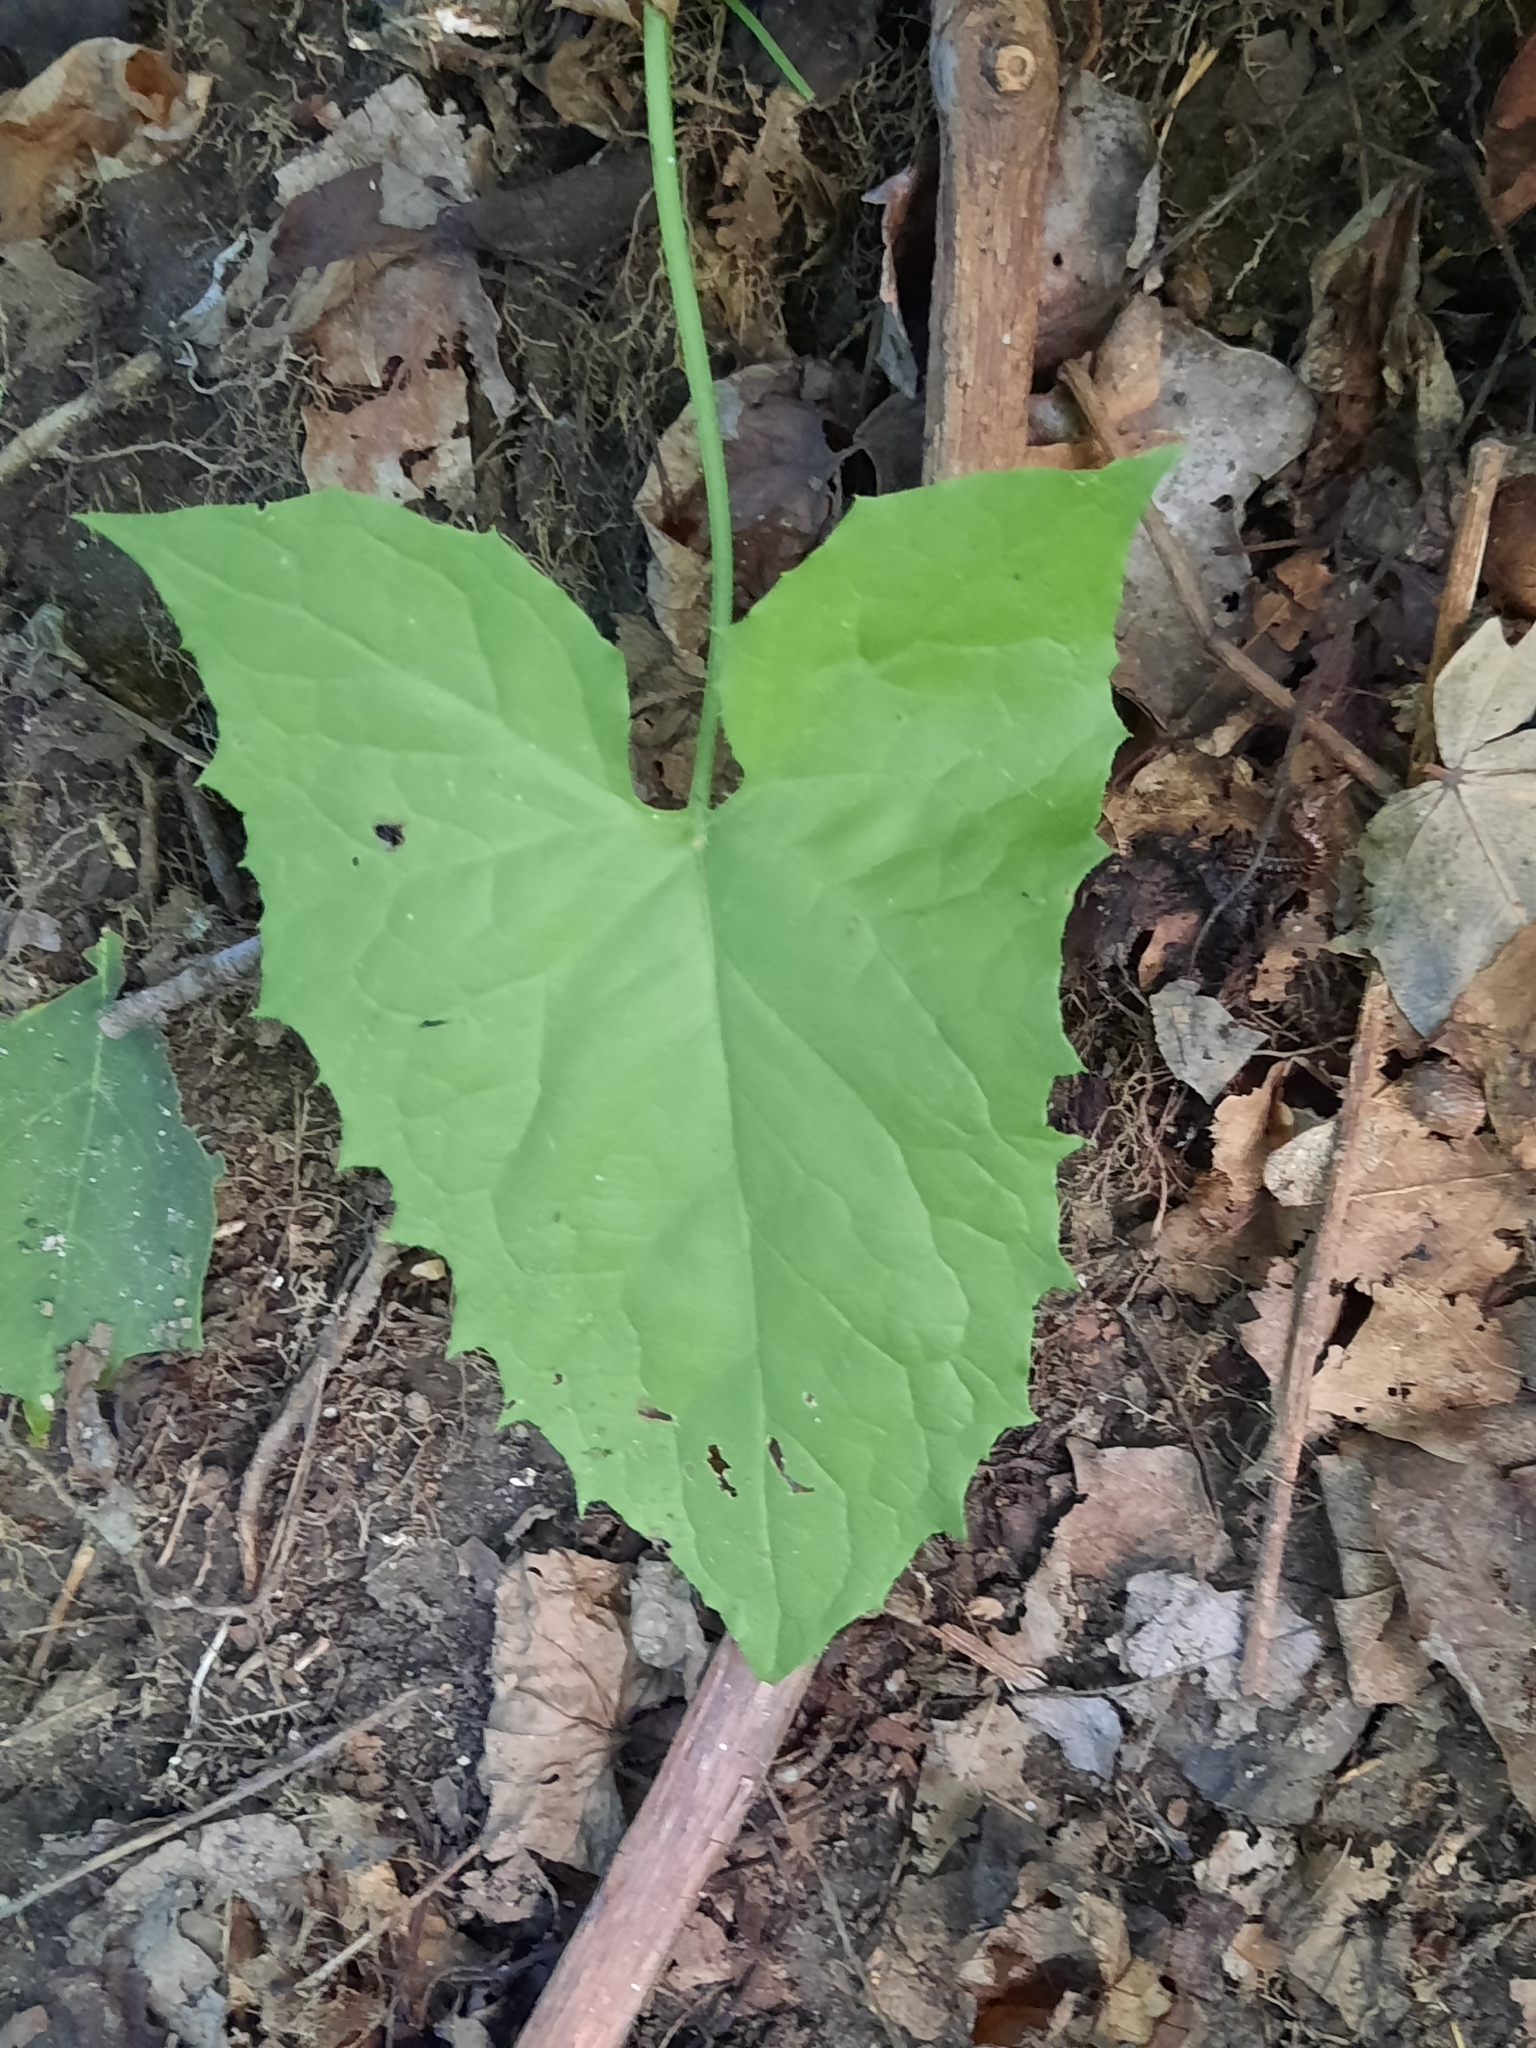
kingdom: Plantae
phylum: Tracheophyta
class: Magnoliopsida
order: Asterales
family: Asteraceae
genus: Nabalus
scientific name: Nabalus
